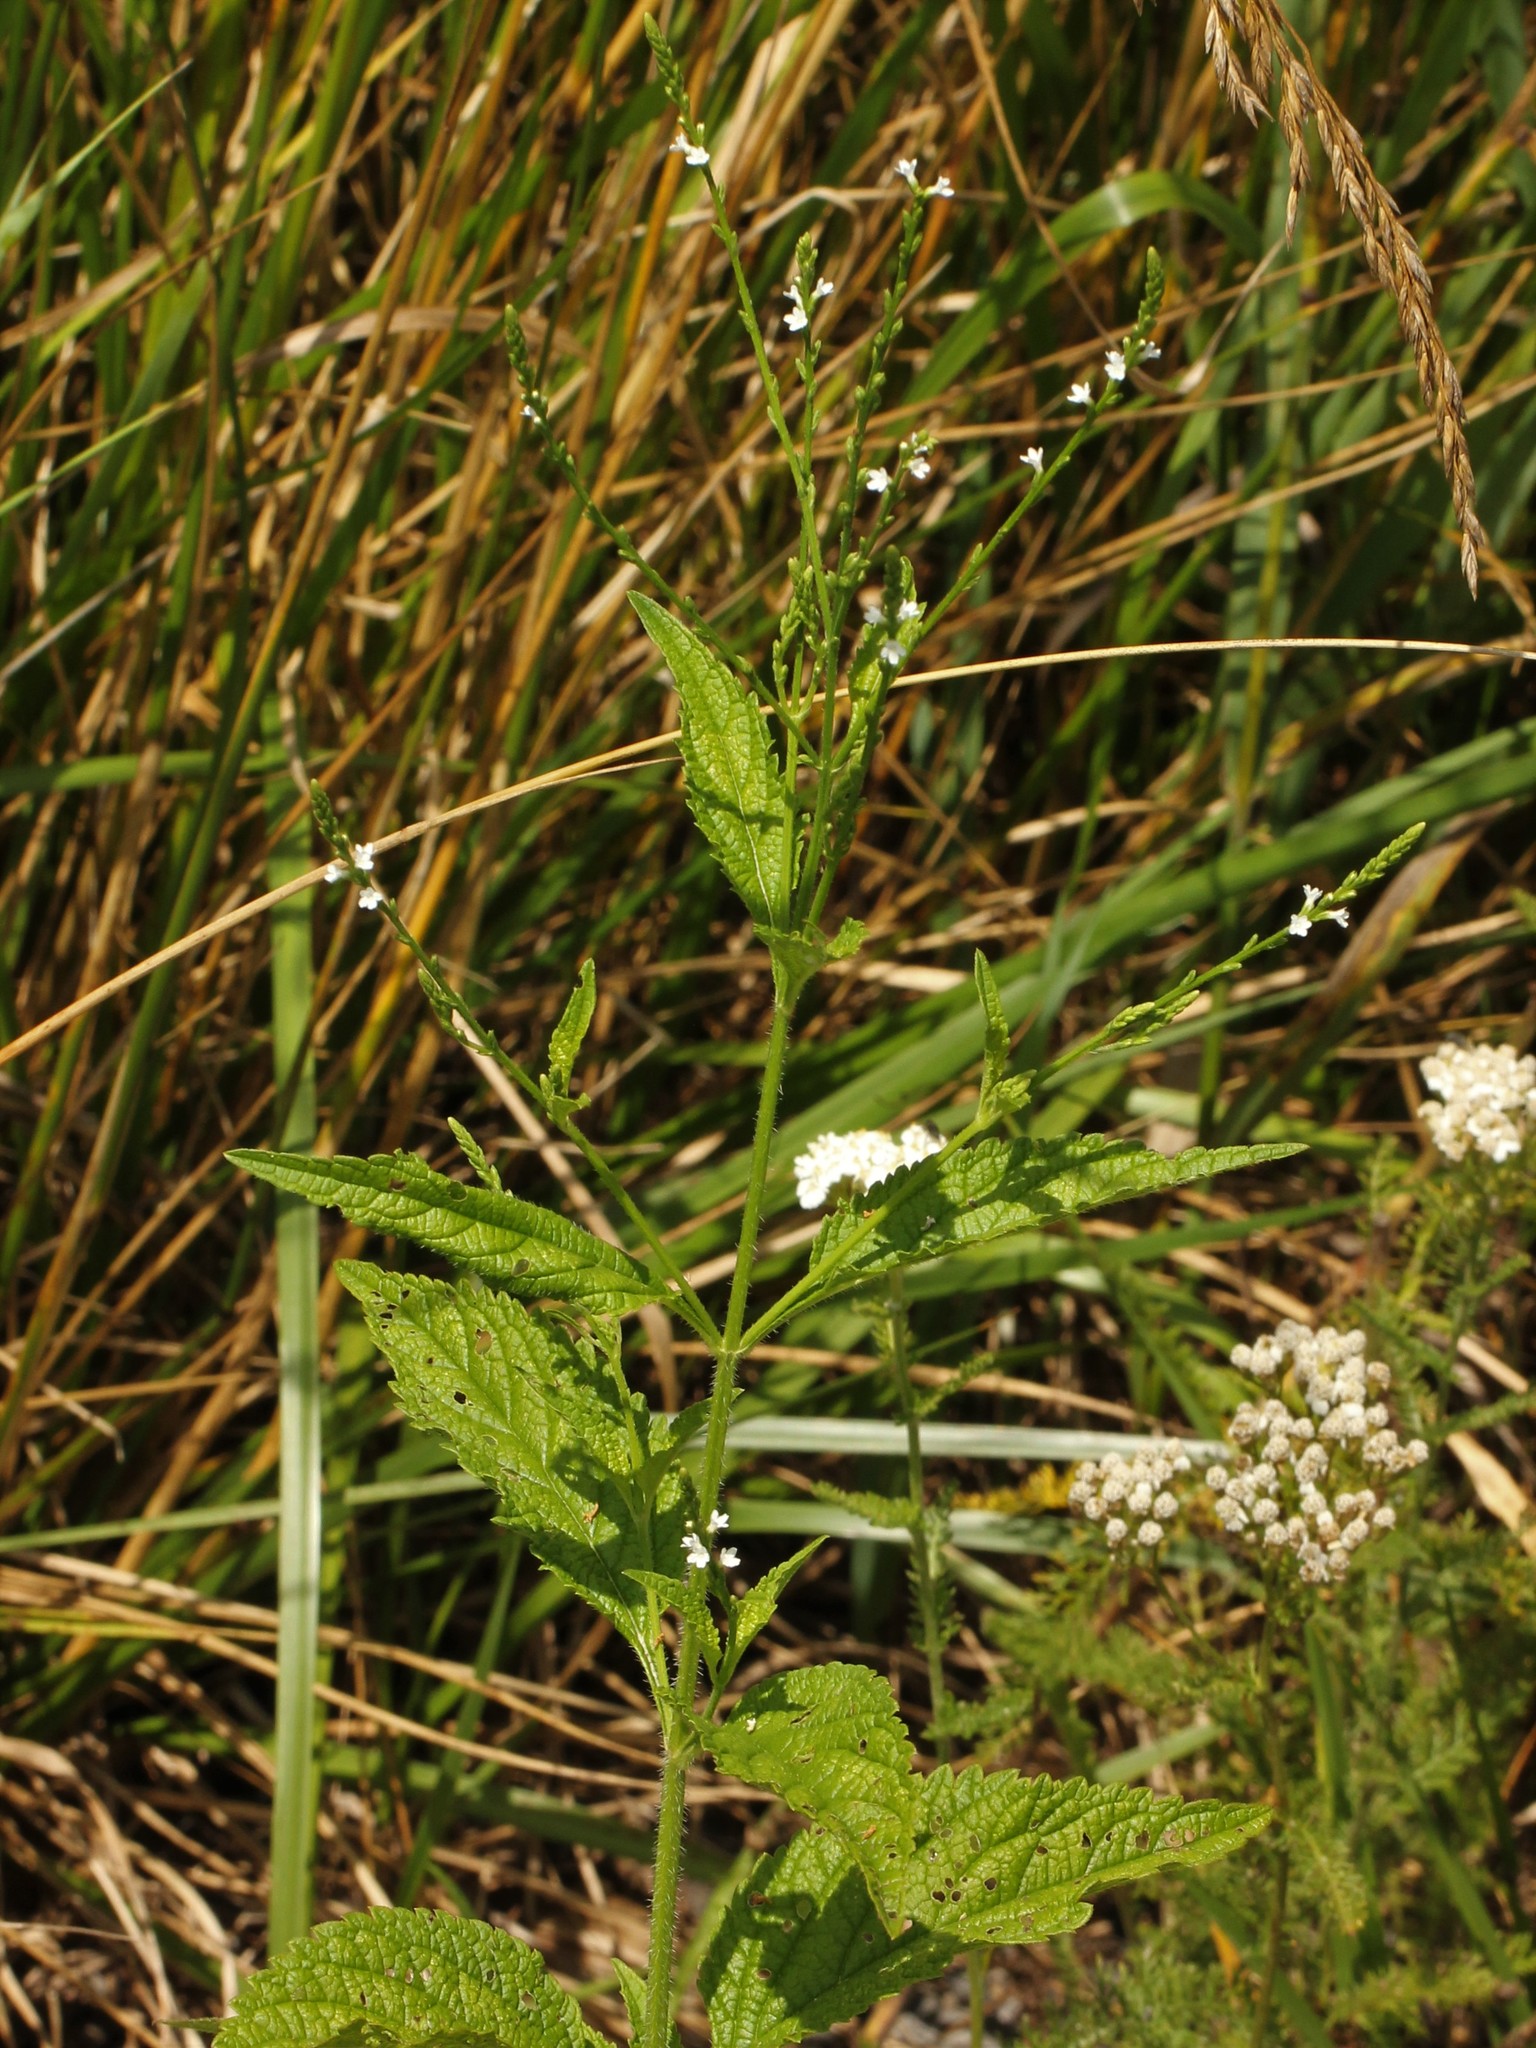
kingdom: Plantae
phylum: Tracheophyta
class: Magnoliopsida
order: Lamiales
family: Verbenaceae
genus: Verbena
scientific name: Verbena urticifolia
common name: Nettle-leaved vervain
